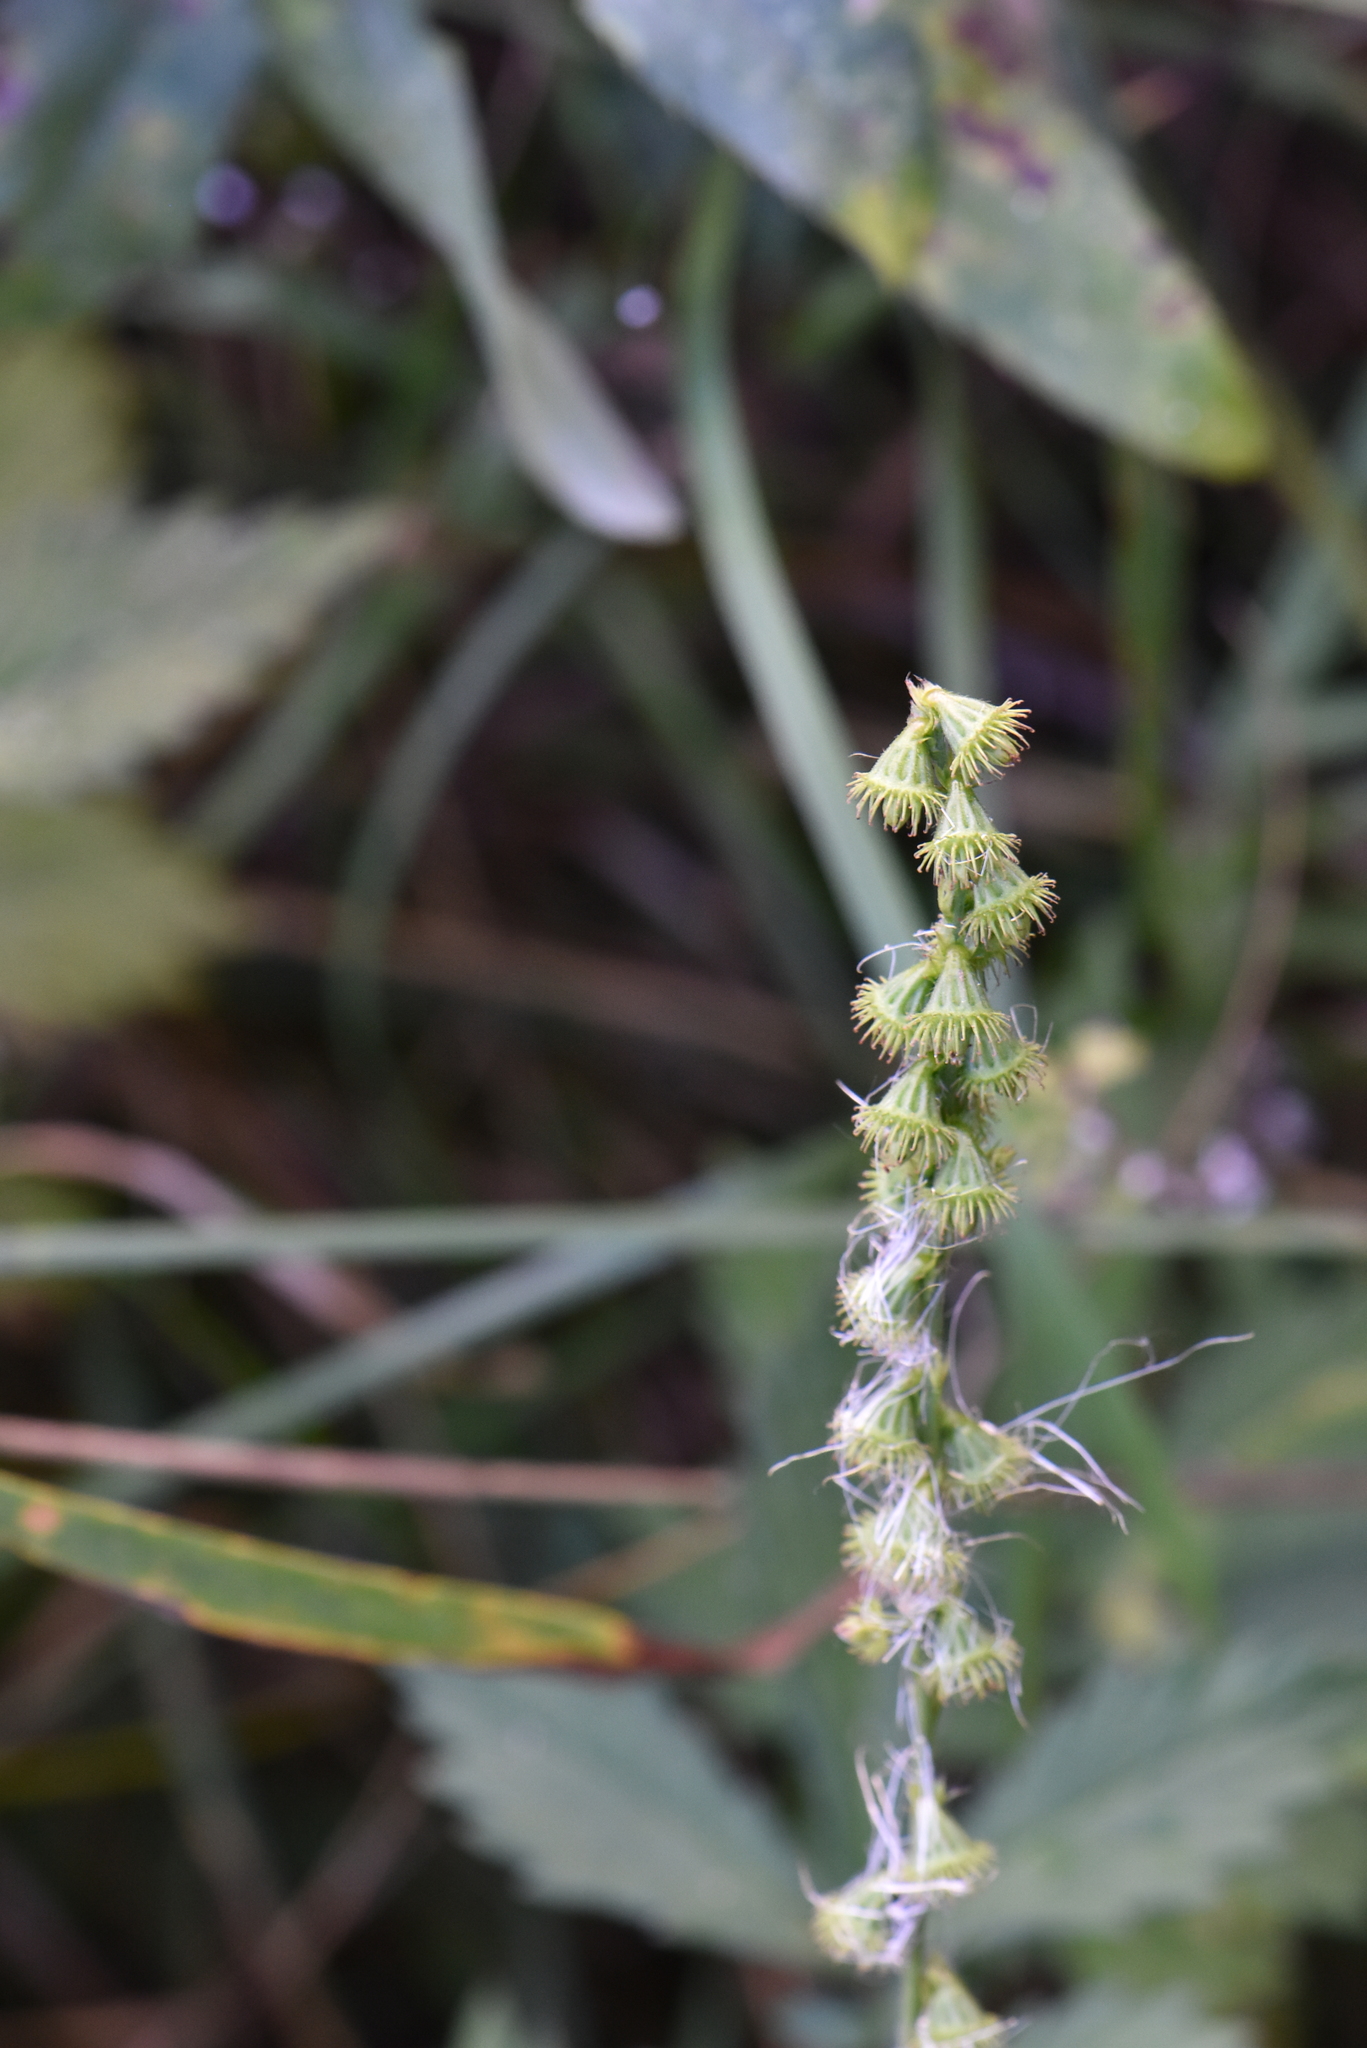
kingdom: Plantae
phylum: Tracheophyta
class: Magnoliopsida
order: Rosales
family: Rosaceae
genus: Agrimonia
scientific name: Agrimonia pilosa
